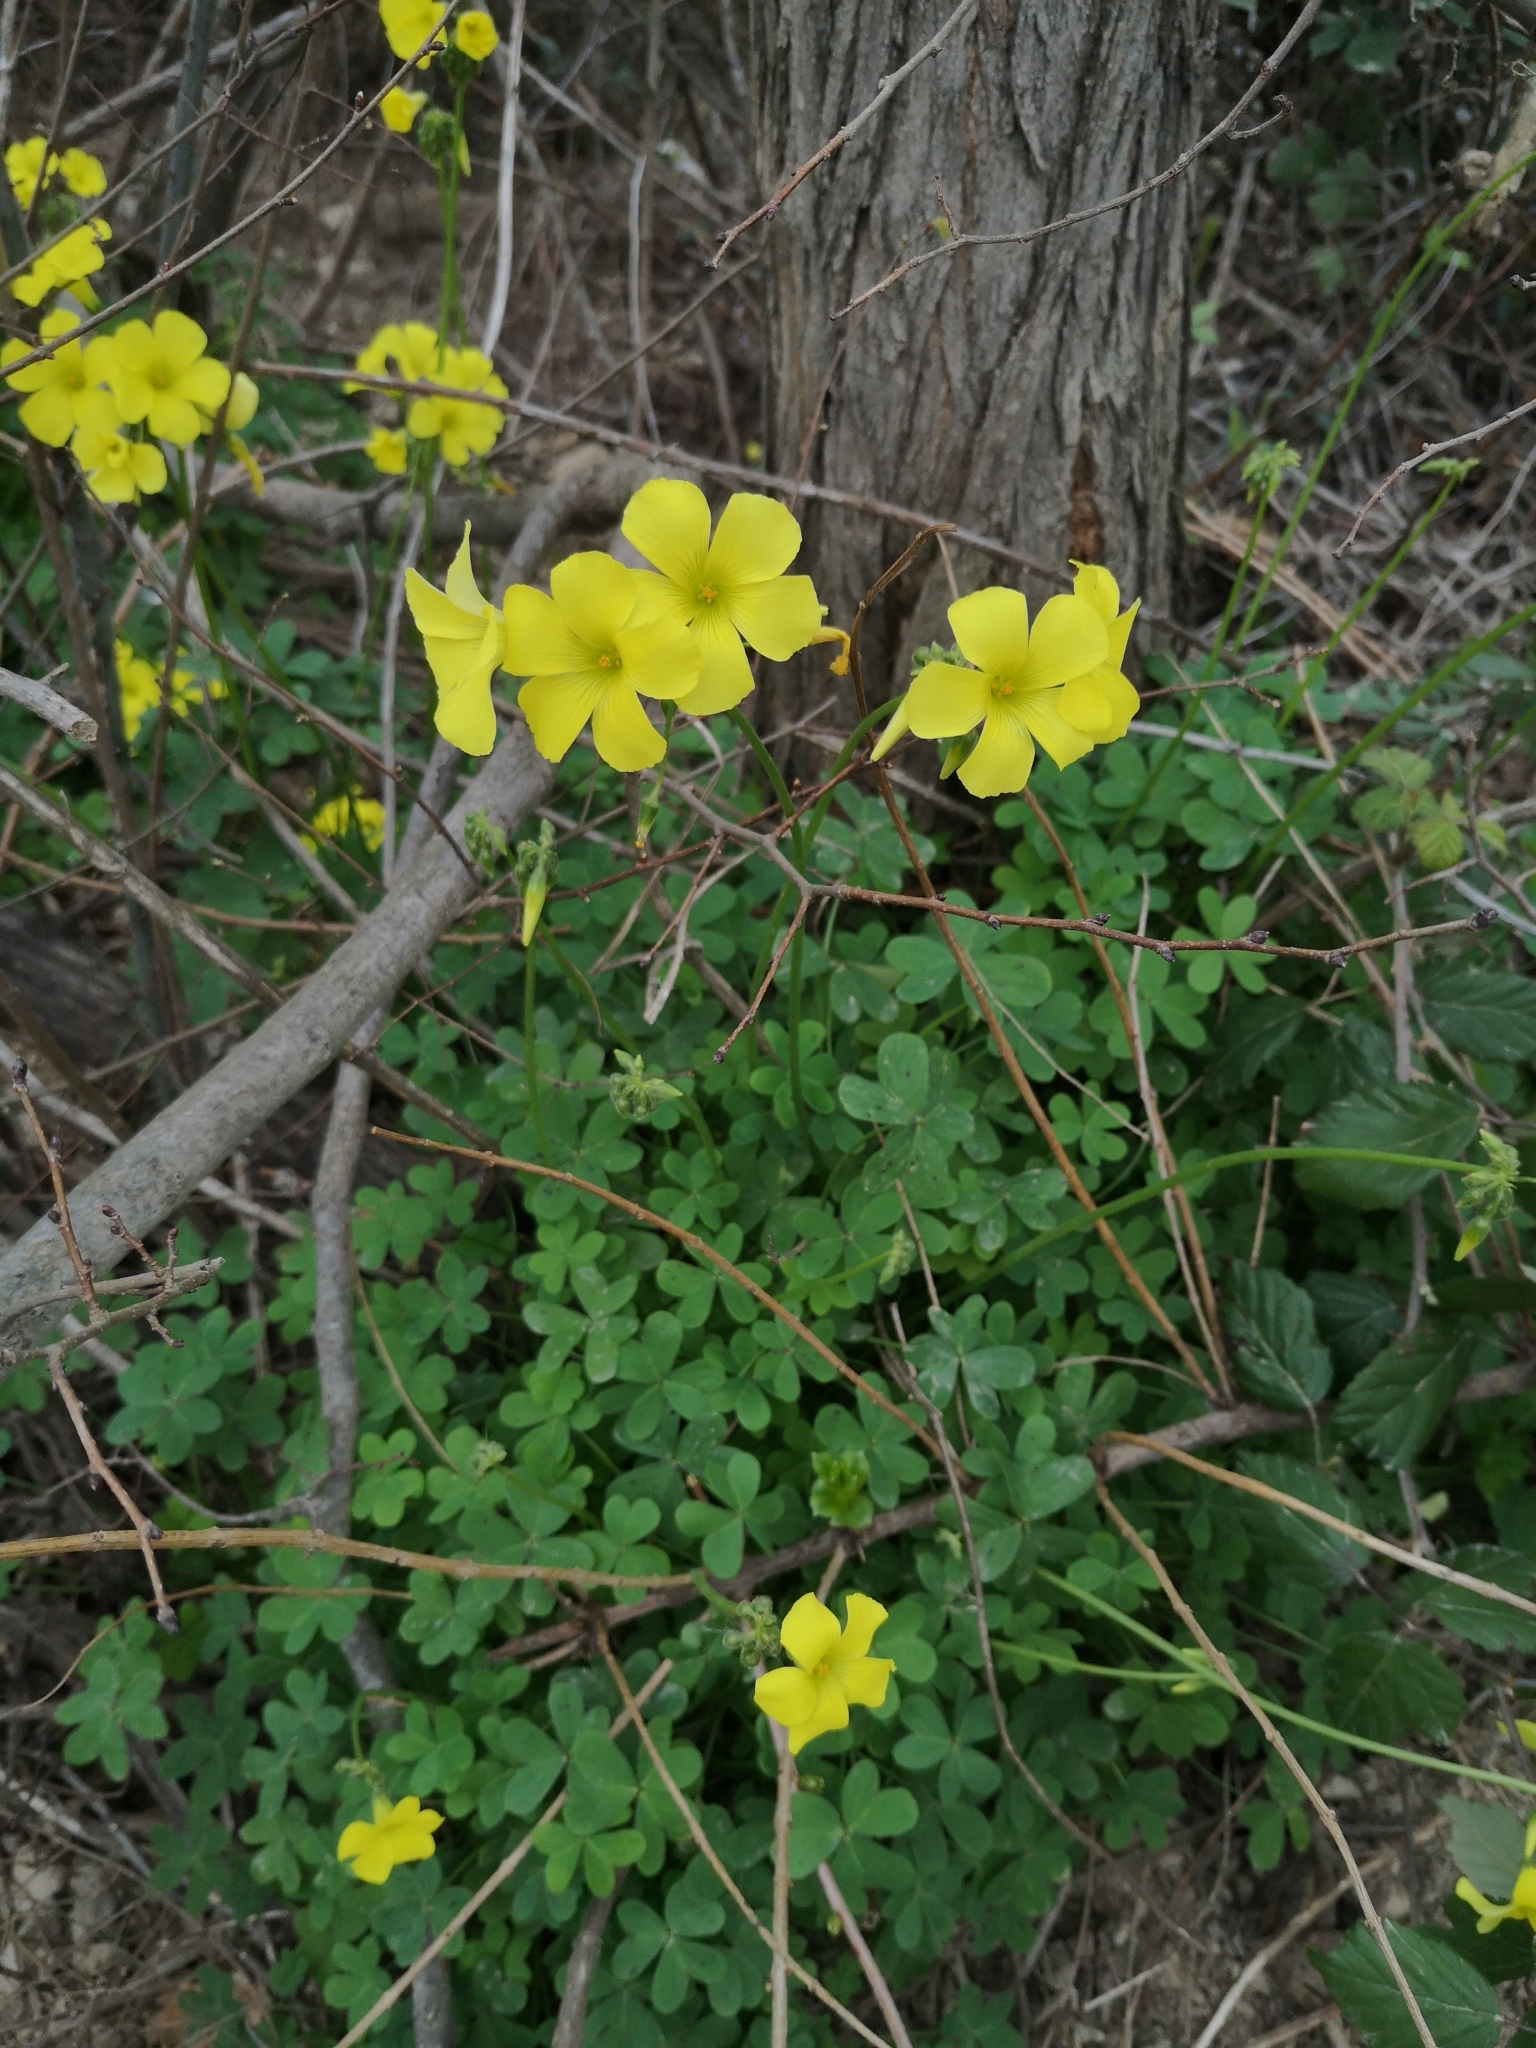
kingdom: Plantae
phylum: Tracheophyta
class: Magnoliopsida
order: Oxalidales
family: Oxalidaceae
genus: Oxalis
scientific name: Oxalis pes-caprae
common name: Bermuda-buttercup
